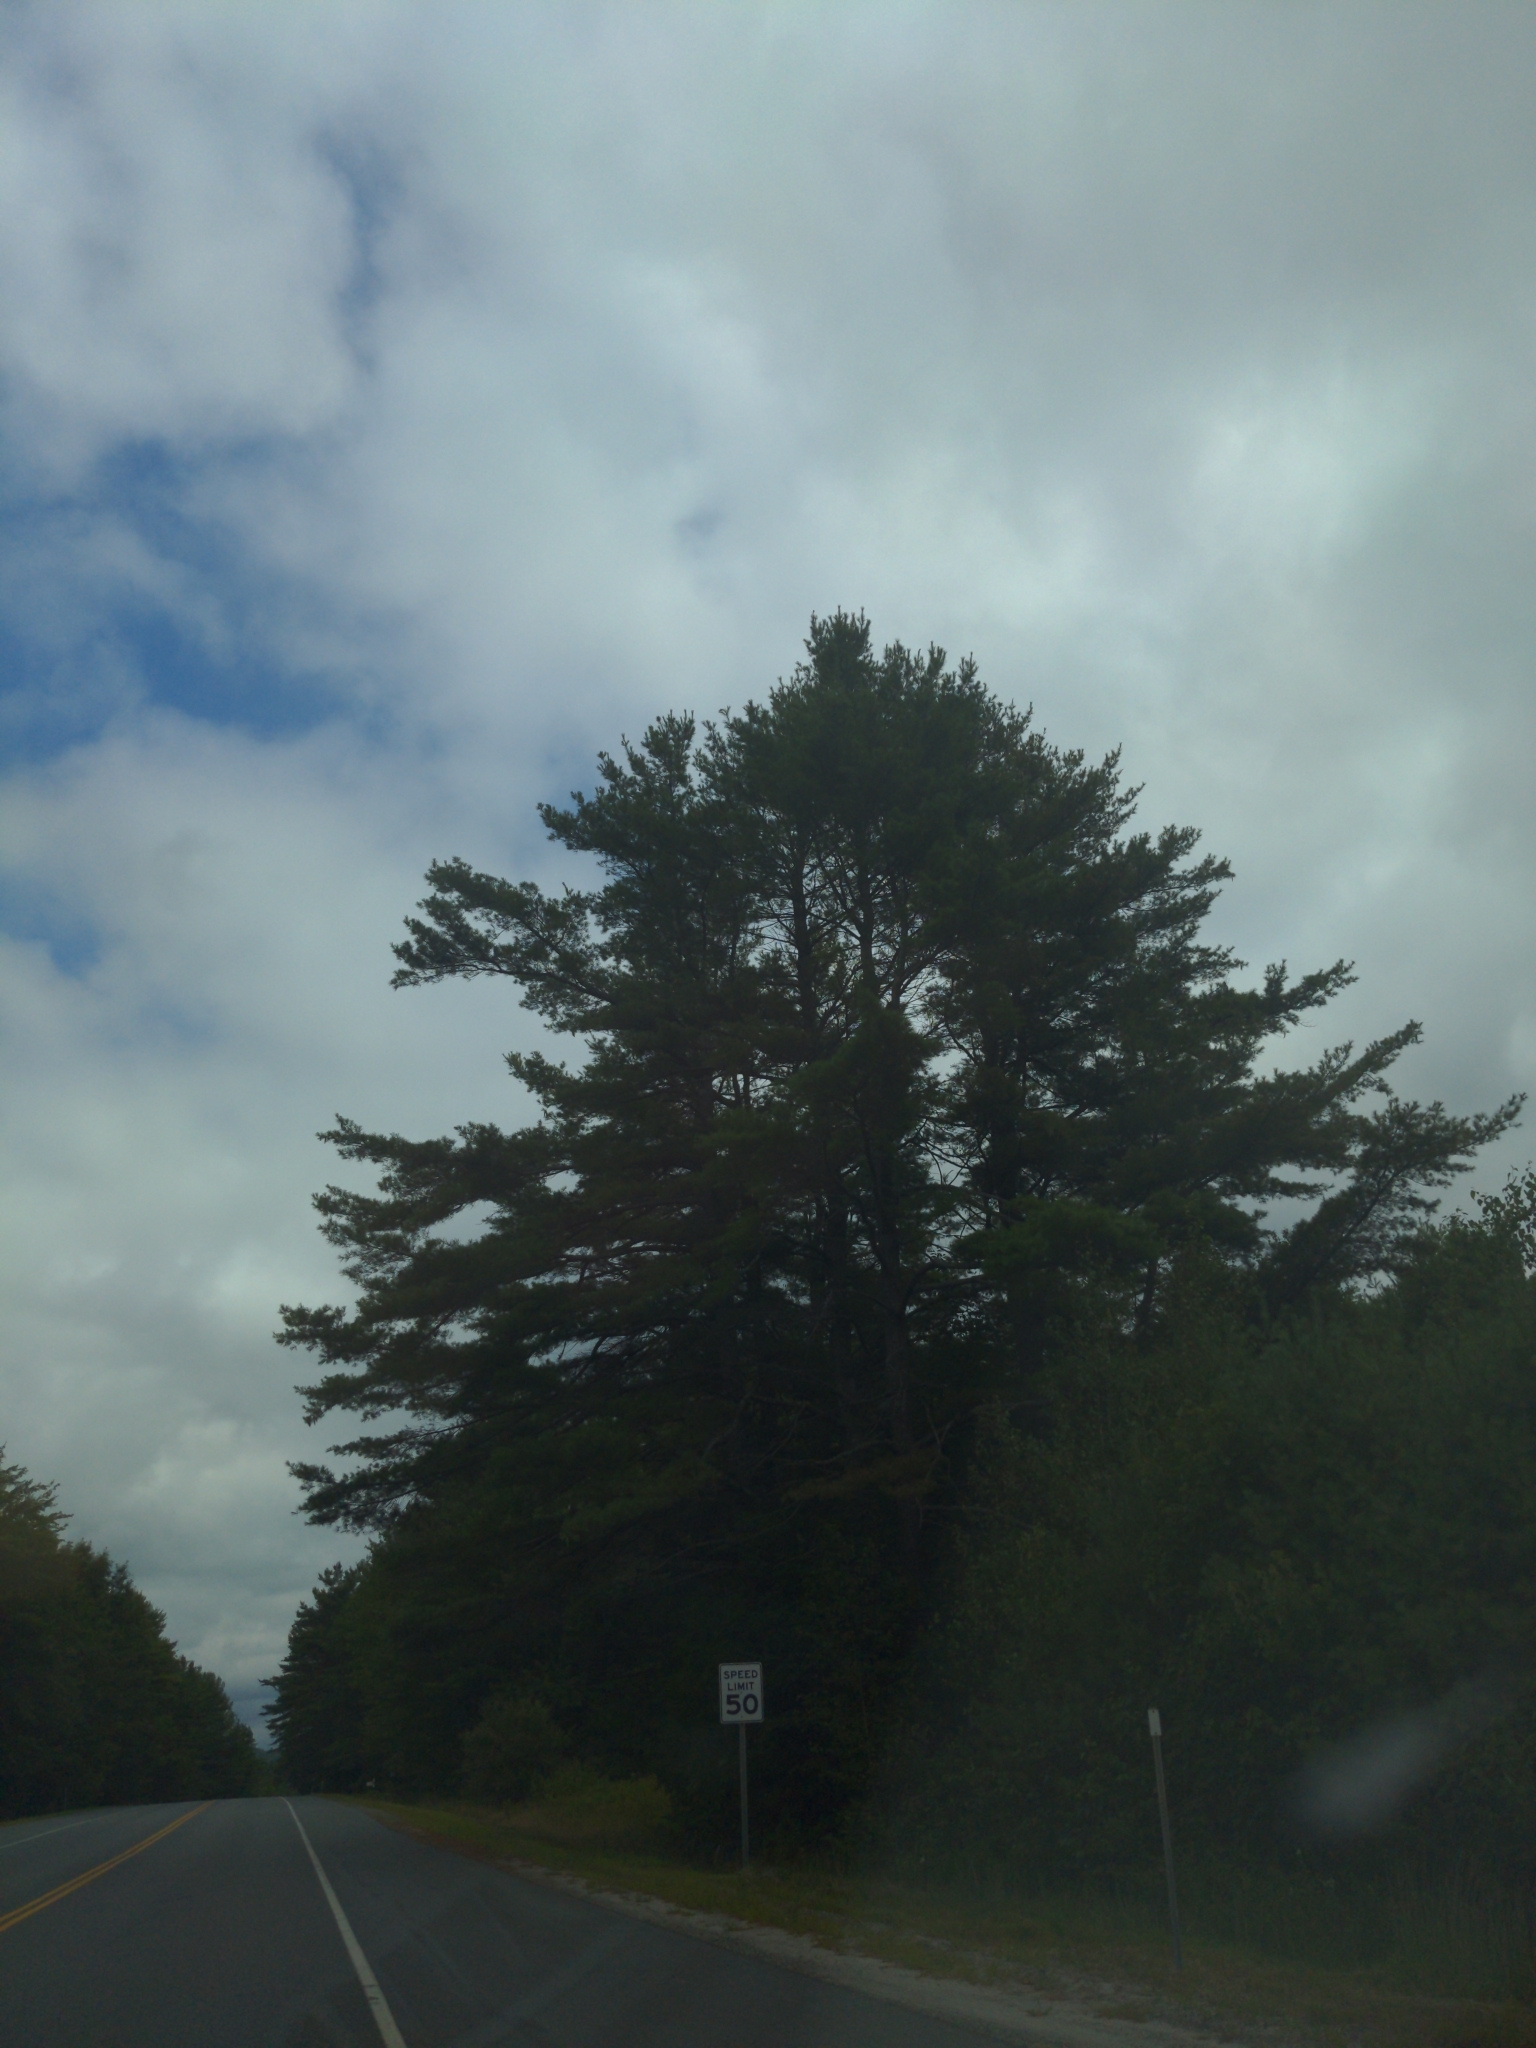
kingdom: Plantae
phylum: Tracheophyta
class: Pinopsida
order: Pinales
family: Pinaceae
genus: Pinus
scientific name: Pinus strobus
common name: Weymouth pine
